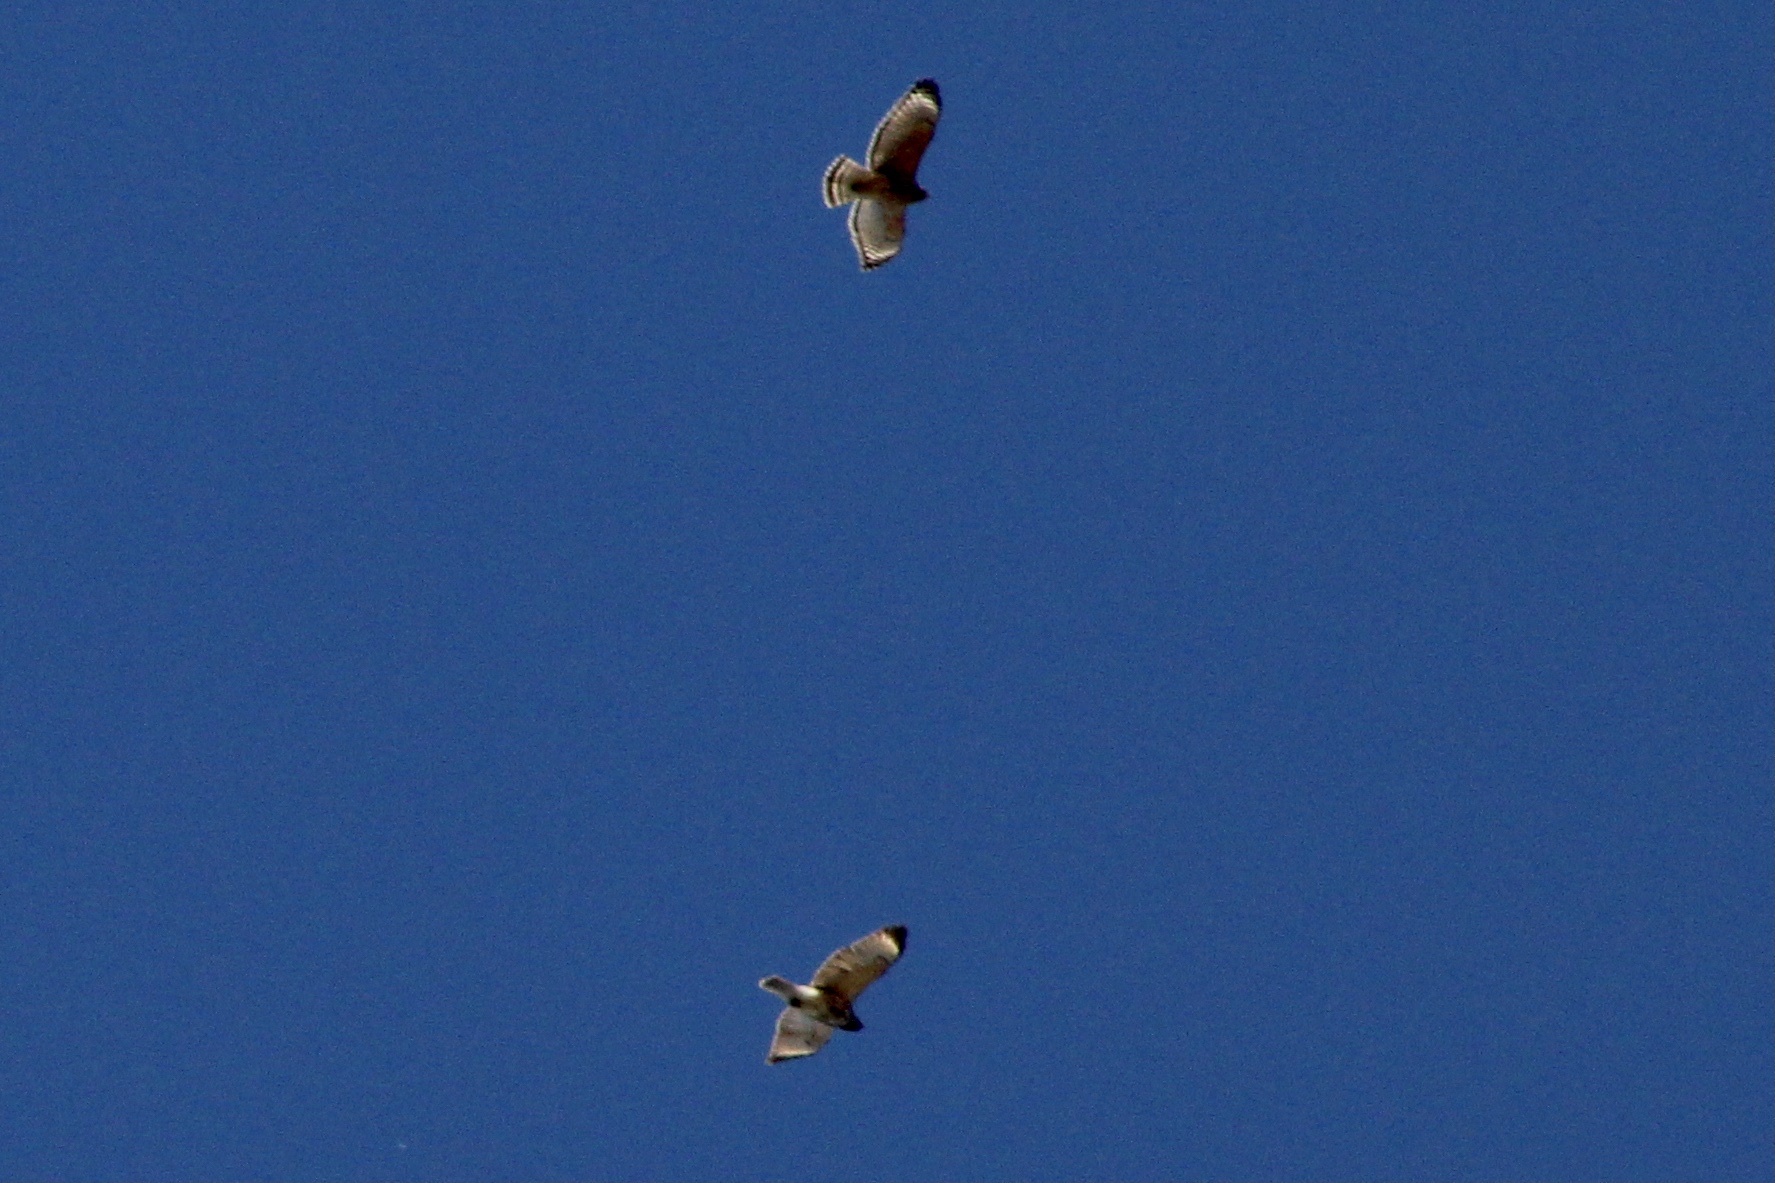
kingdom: Animalia
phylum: Chordata
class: Aves
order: Accipitriformes
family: Accipitridae
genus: Buteo
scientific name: Buteo lineatus
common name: Red-shouldered hawk
